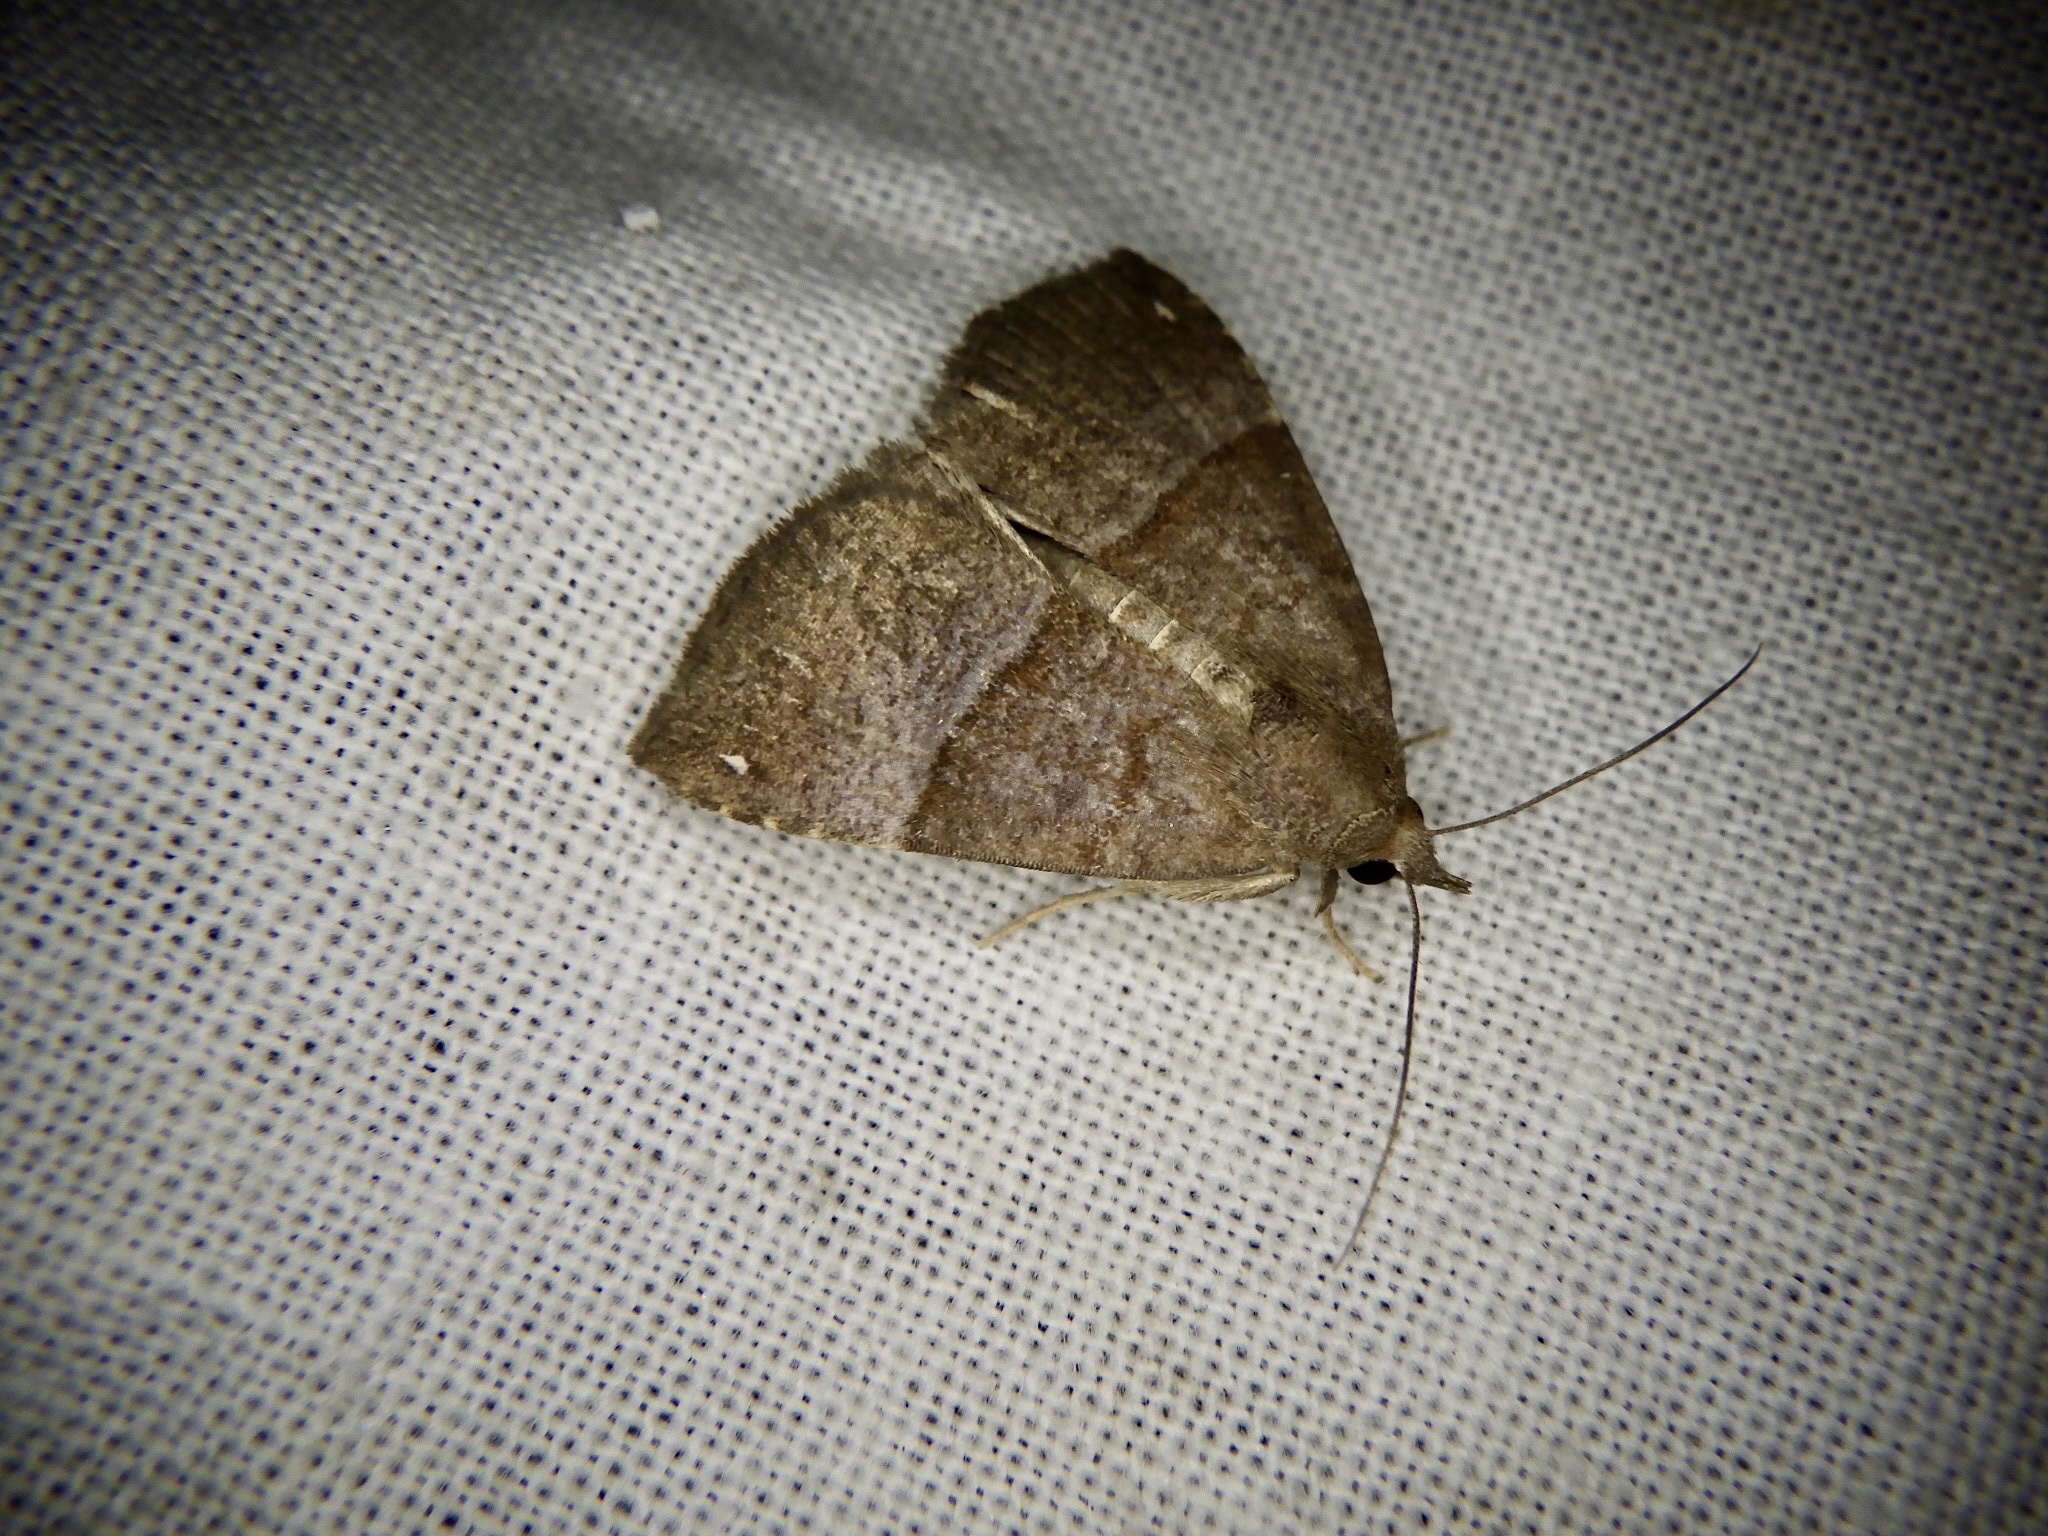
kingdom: Animalia
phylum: Arthropoda
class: Insecta
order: Lepidoptera
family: Erebidae
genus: Harita
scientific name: Harita
